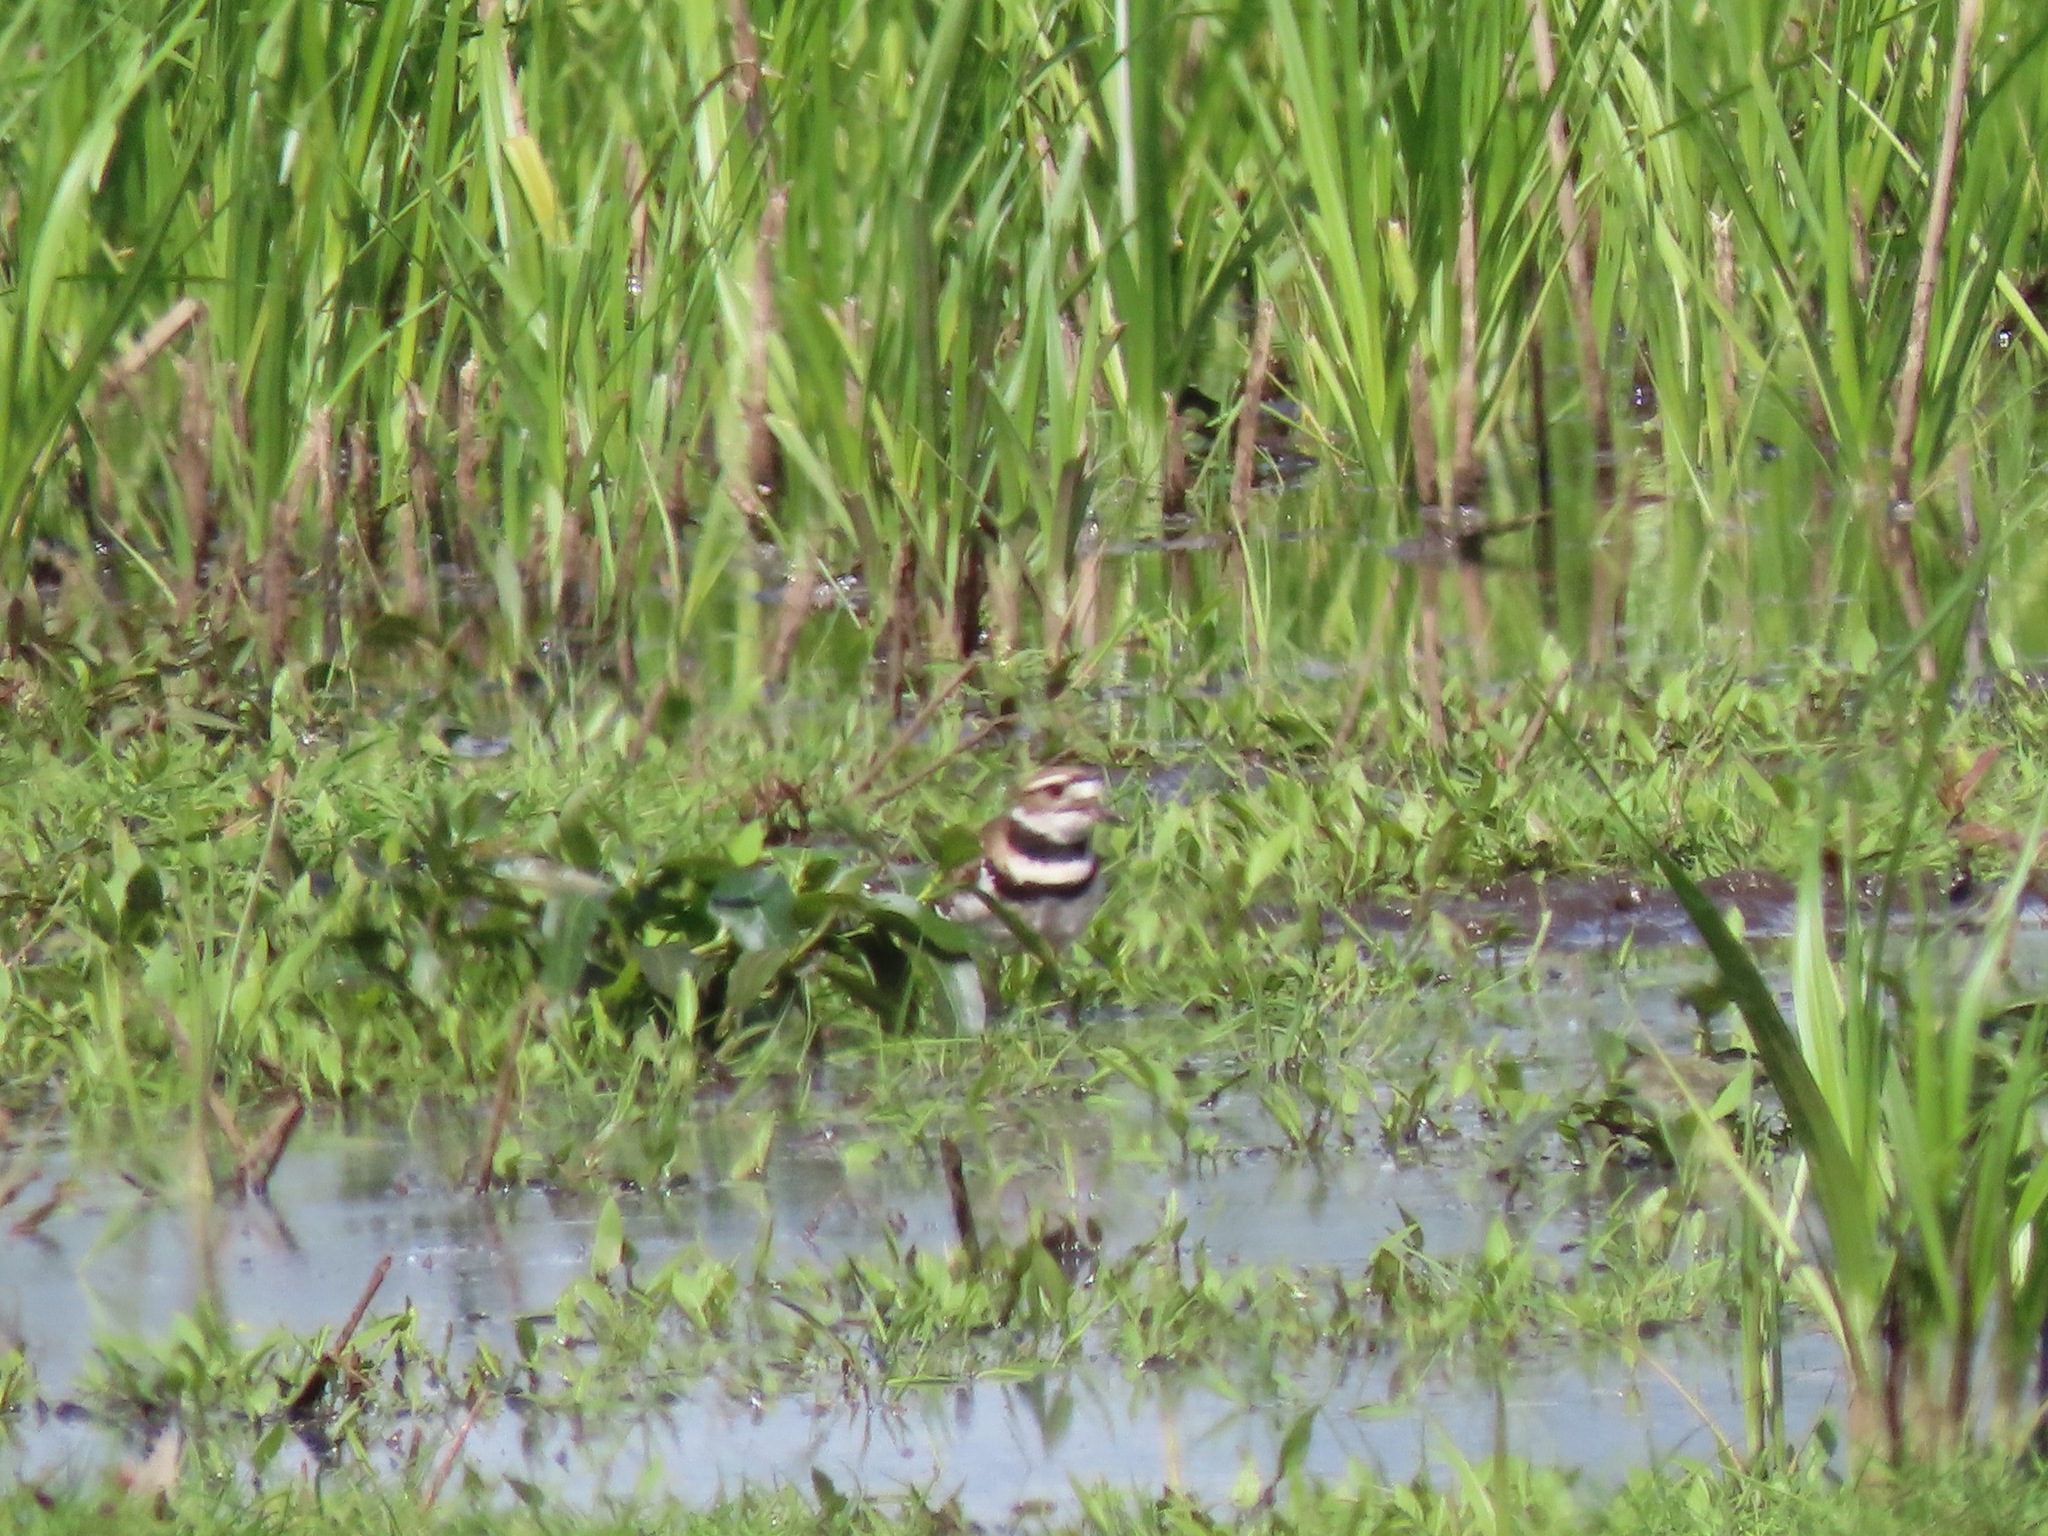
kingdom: Animalia
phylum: Chordata
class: Aves
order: Charadriiformes
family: Charadriidae
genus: Charadrius
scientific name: Charadrius vociferus
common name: Killdeer
